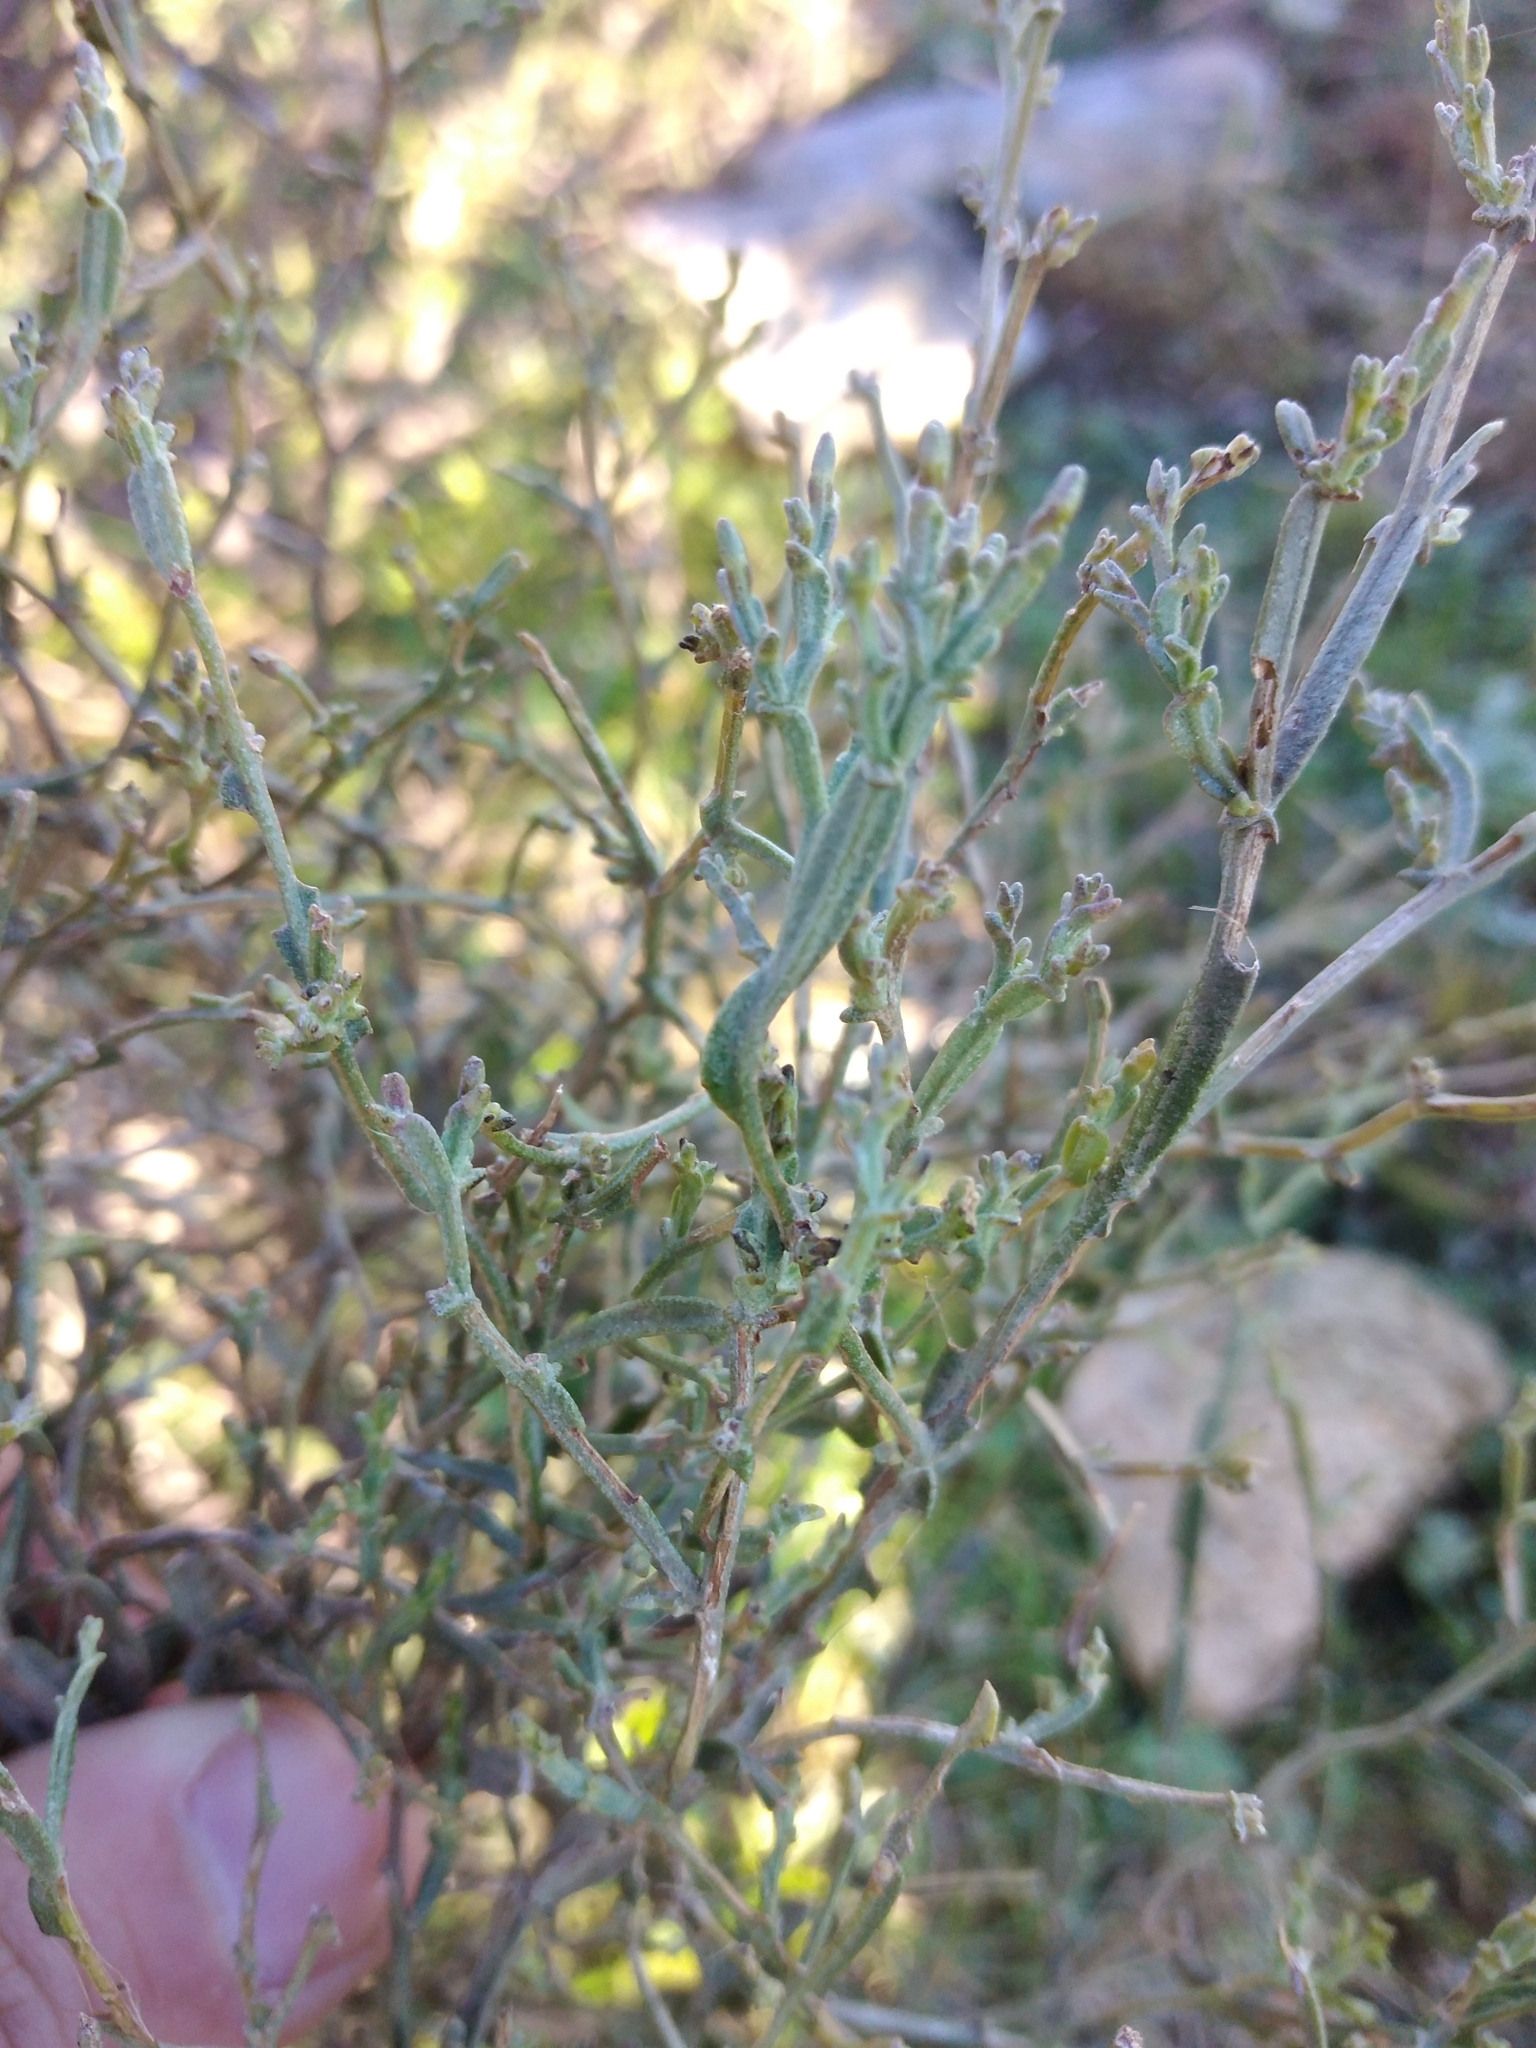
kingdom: Plantae
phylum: Tracheophyta
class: Magnoliopsida
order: Asterales
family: Asteraceae
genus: Baccharis
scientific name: Baccharis articulata
